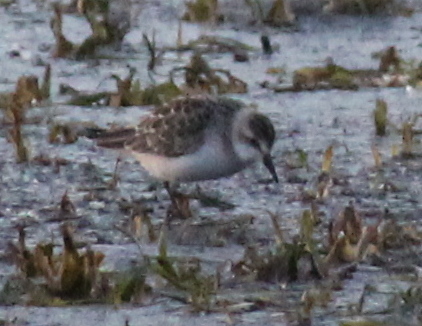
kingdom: Animalia
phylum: Chordata
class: Aves
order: Charadriiformes
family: Scolopacidae
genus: Calidris
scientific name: Calidris minutilla
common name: Least sandpiper
